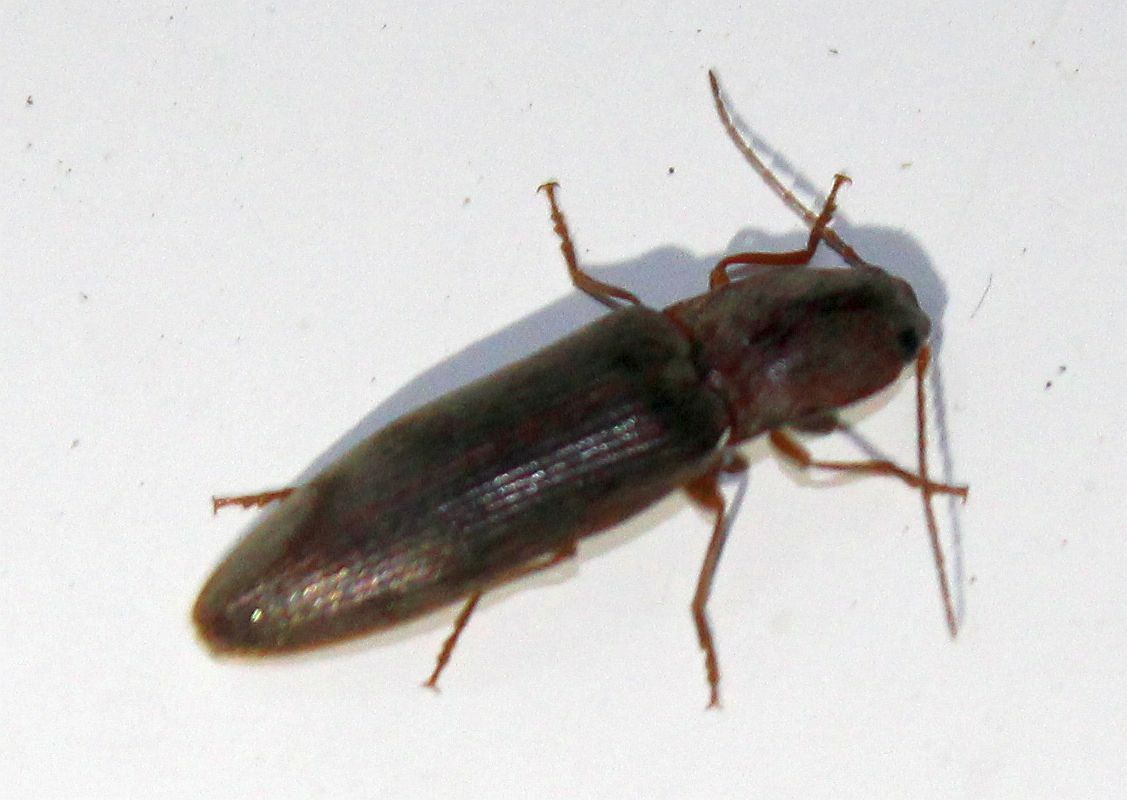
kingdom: Animalia
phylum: Arthropoda
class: Insecta
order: Coleoptera
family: Elateridae
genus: Stenagostus
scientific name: Stenagostus rhombeus
